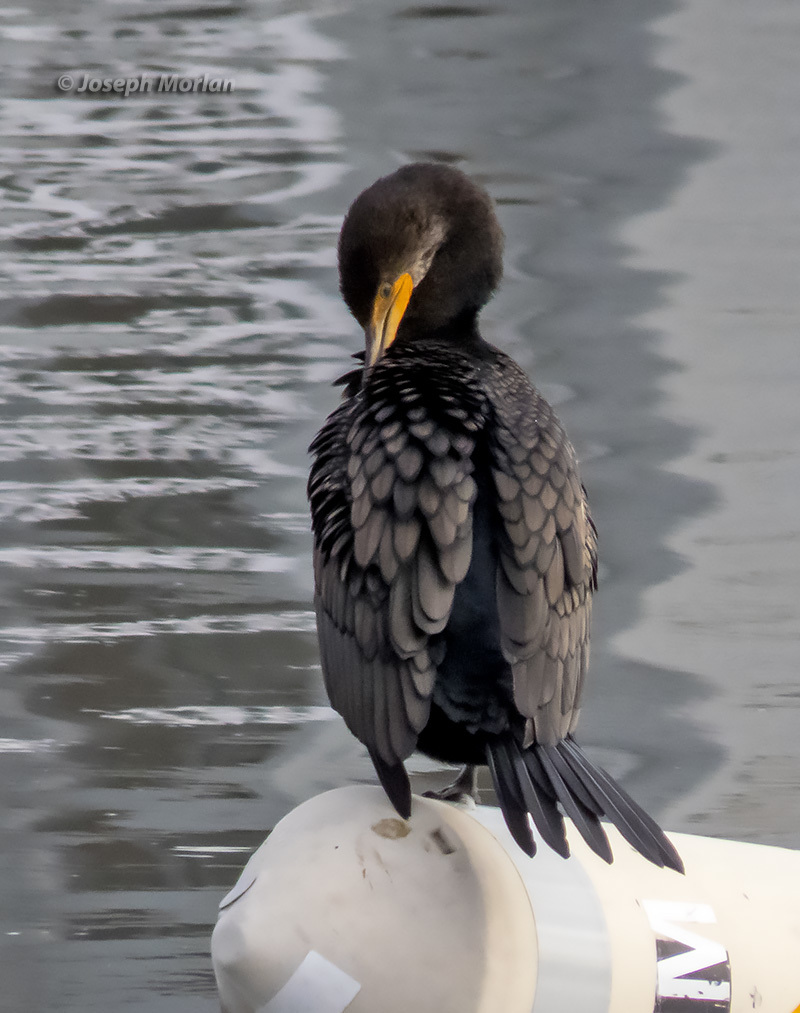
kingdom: Animalia
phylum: Chordata
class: Aves
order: Suliformes
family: Phalacrocoracidae
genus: Phalacrocorax
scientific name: Phalacrocorax auritus
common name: Double-crested cormorant
